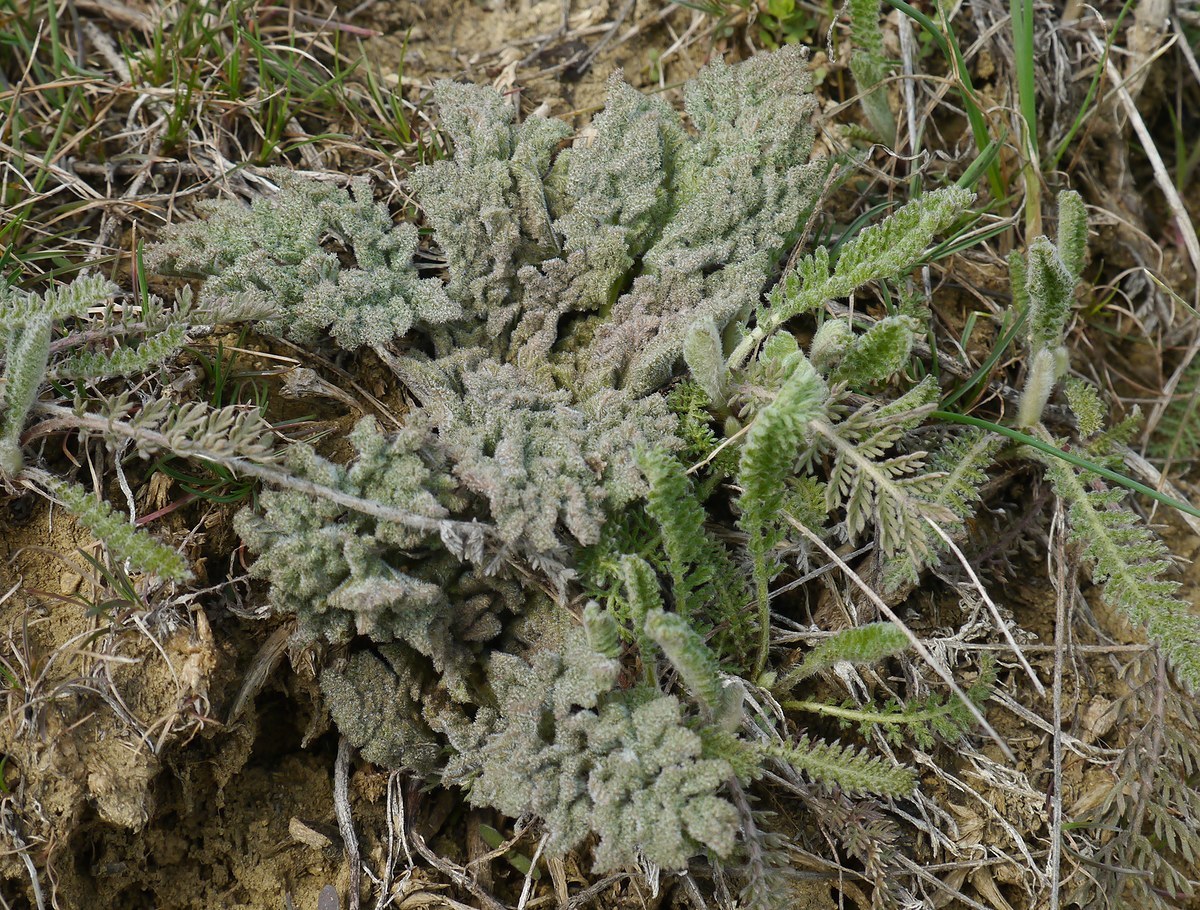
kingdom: Plantae
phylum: Tracheophyta
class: Magnoliopsida
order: Apiales
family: Apiaceae
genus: Ferula
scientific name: Ferula caspica
